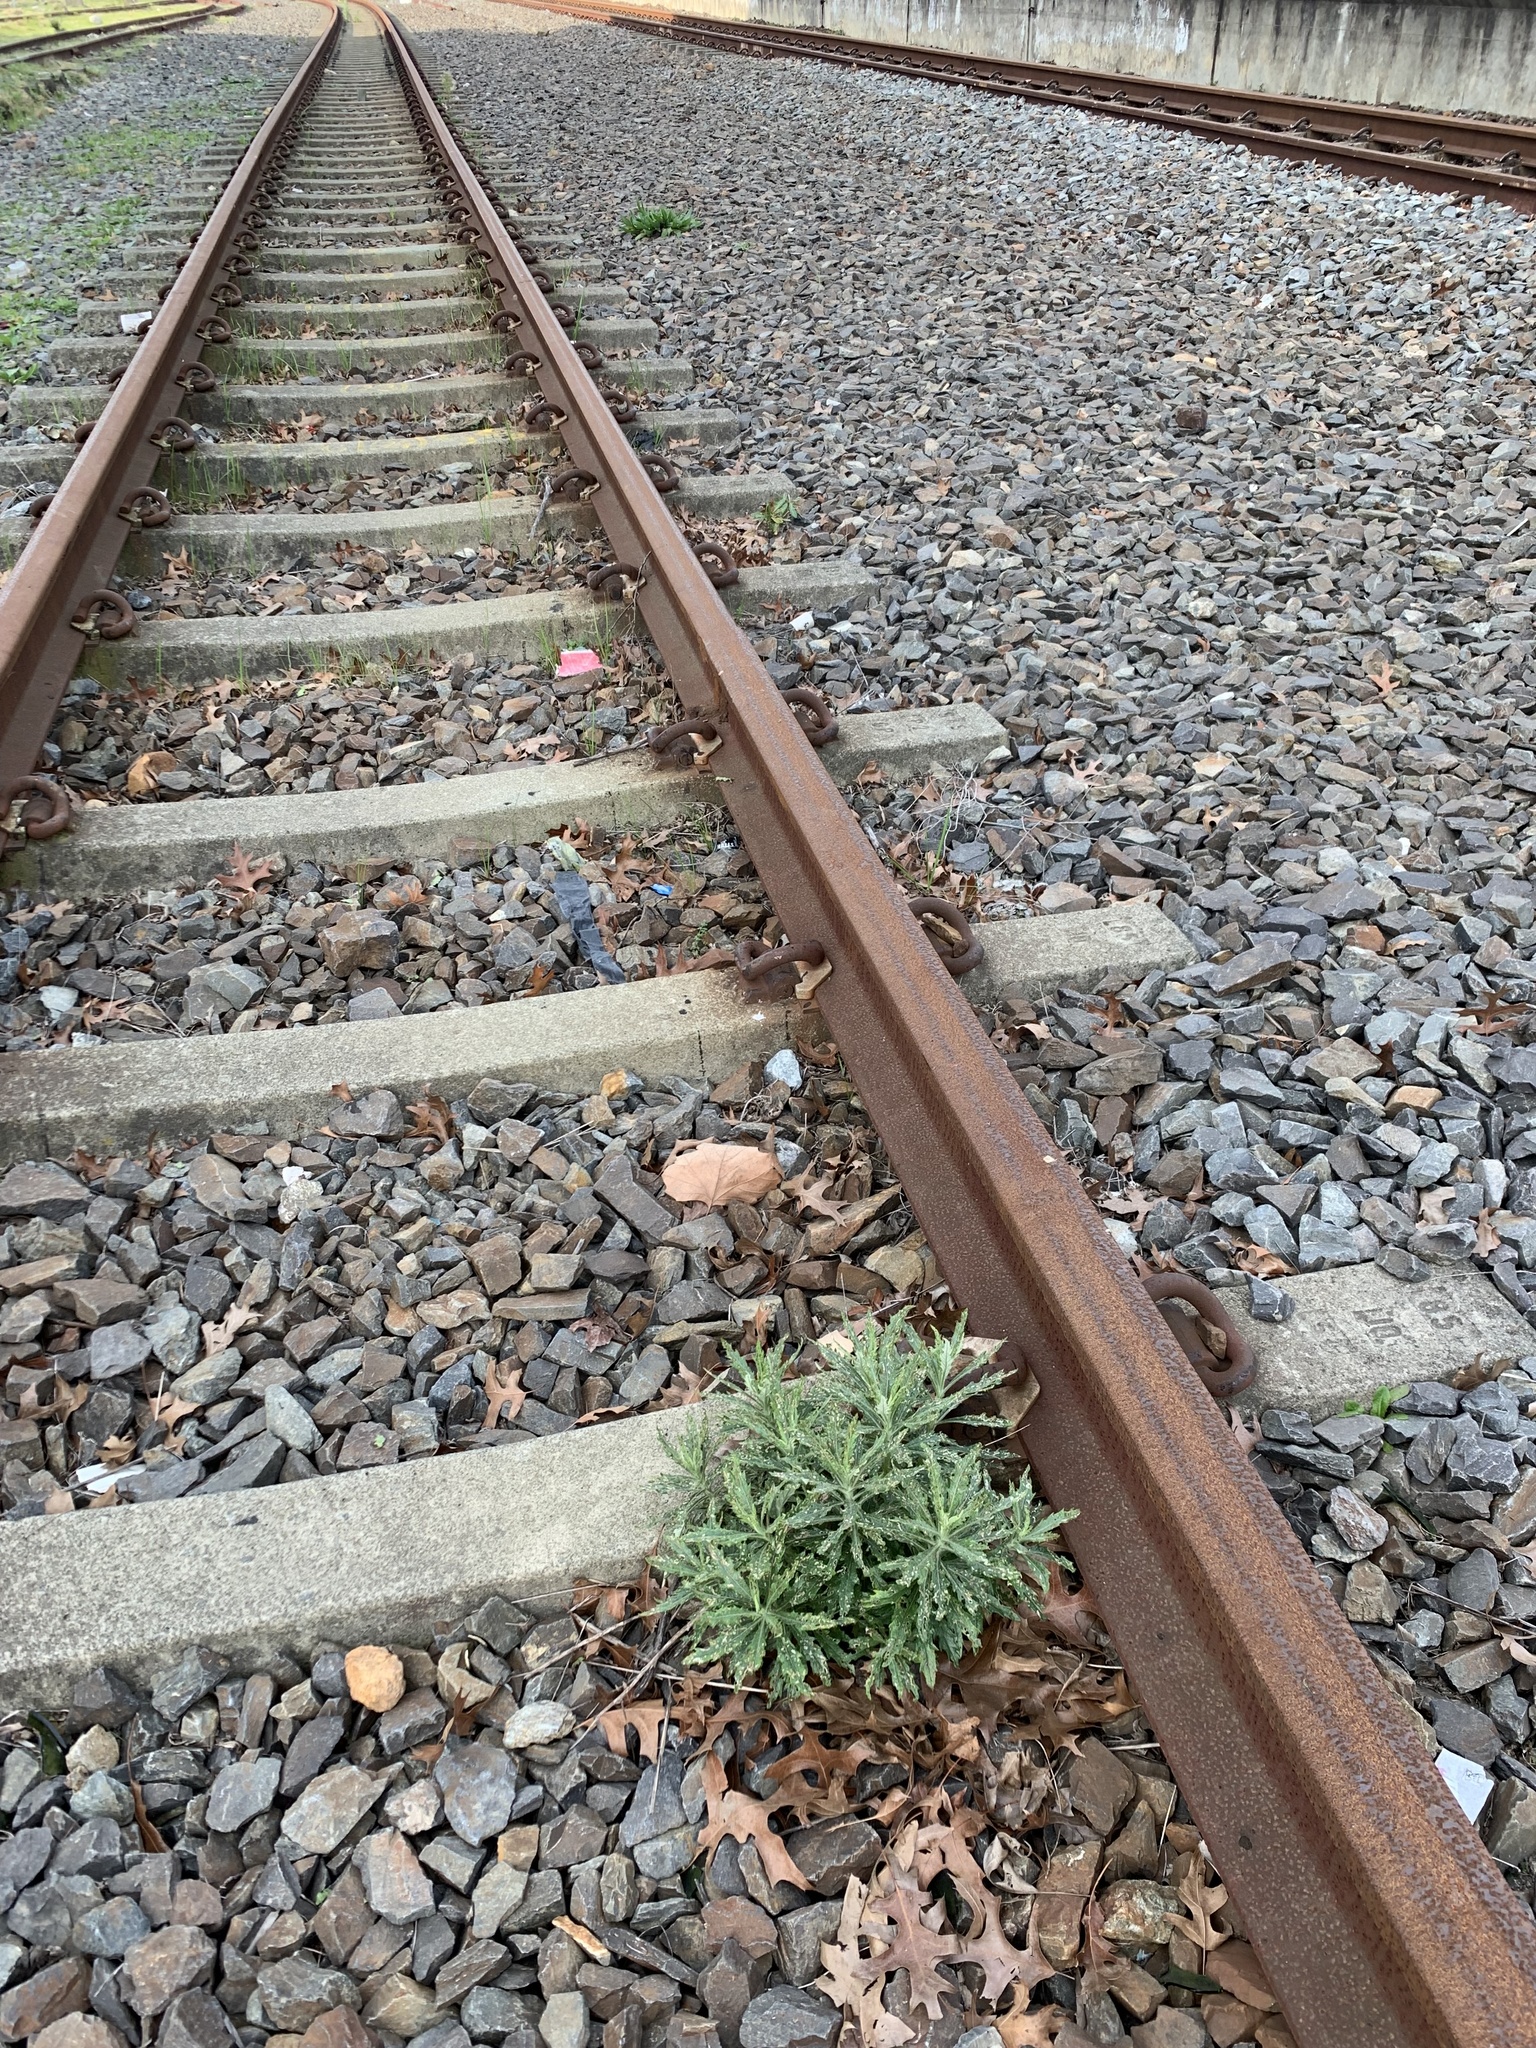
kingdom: Plantae
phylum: Tracheophyta
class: Magnoliopsida
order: Asterales
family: Asteraceae
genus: Senecio
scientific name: Senecio pterophorus
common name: Shoddy ragwort
